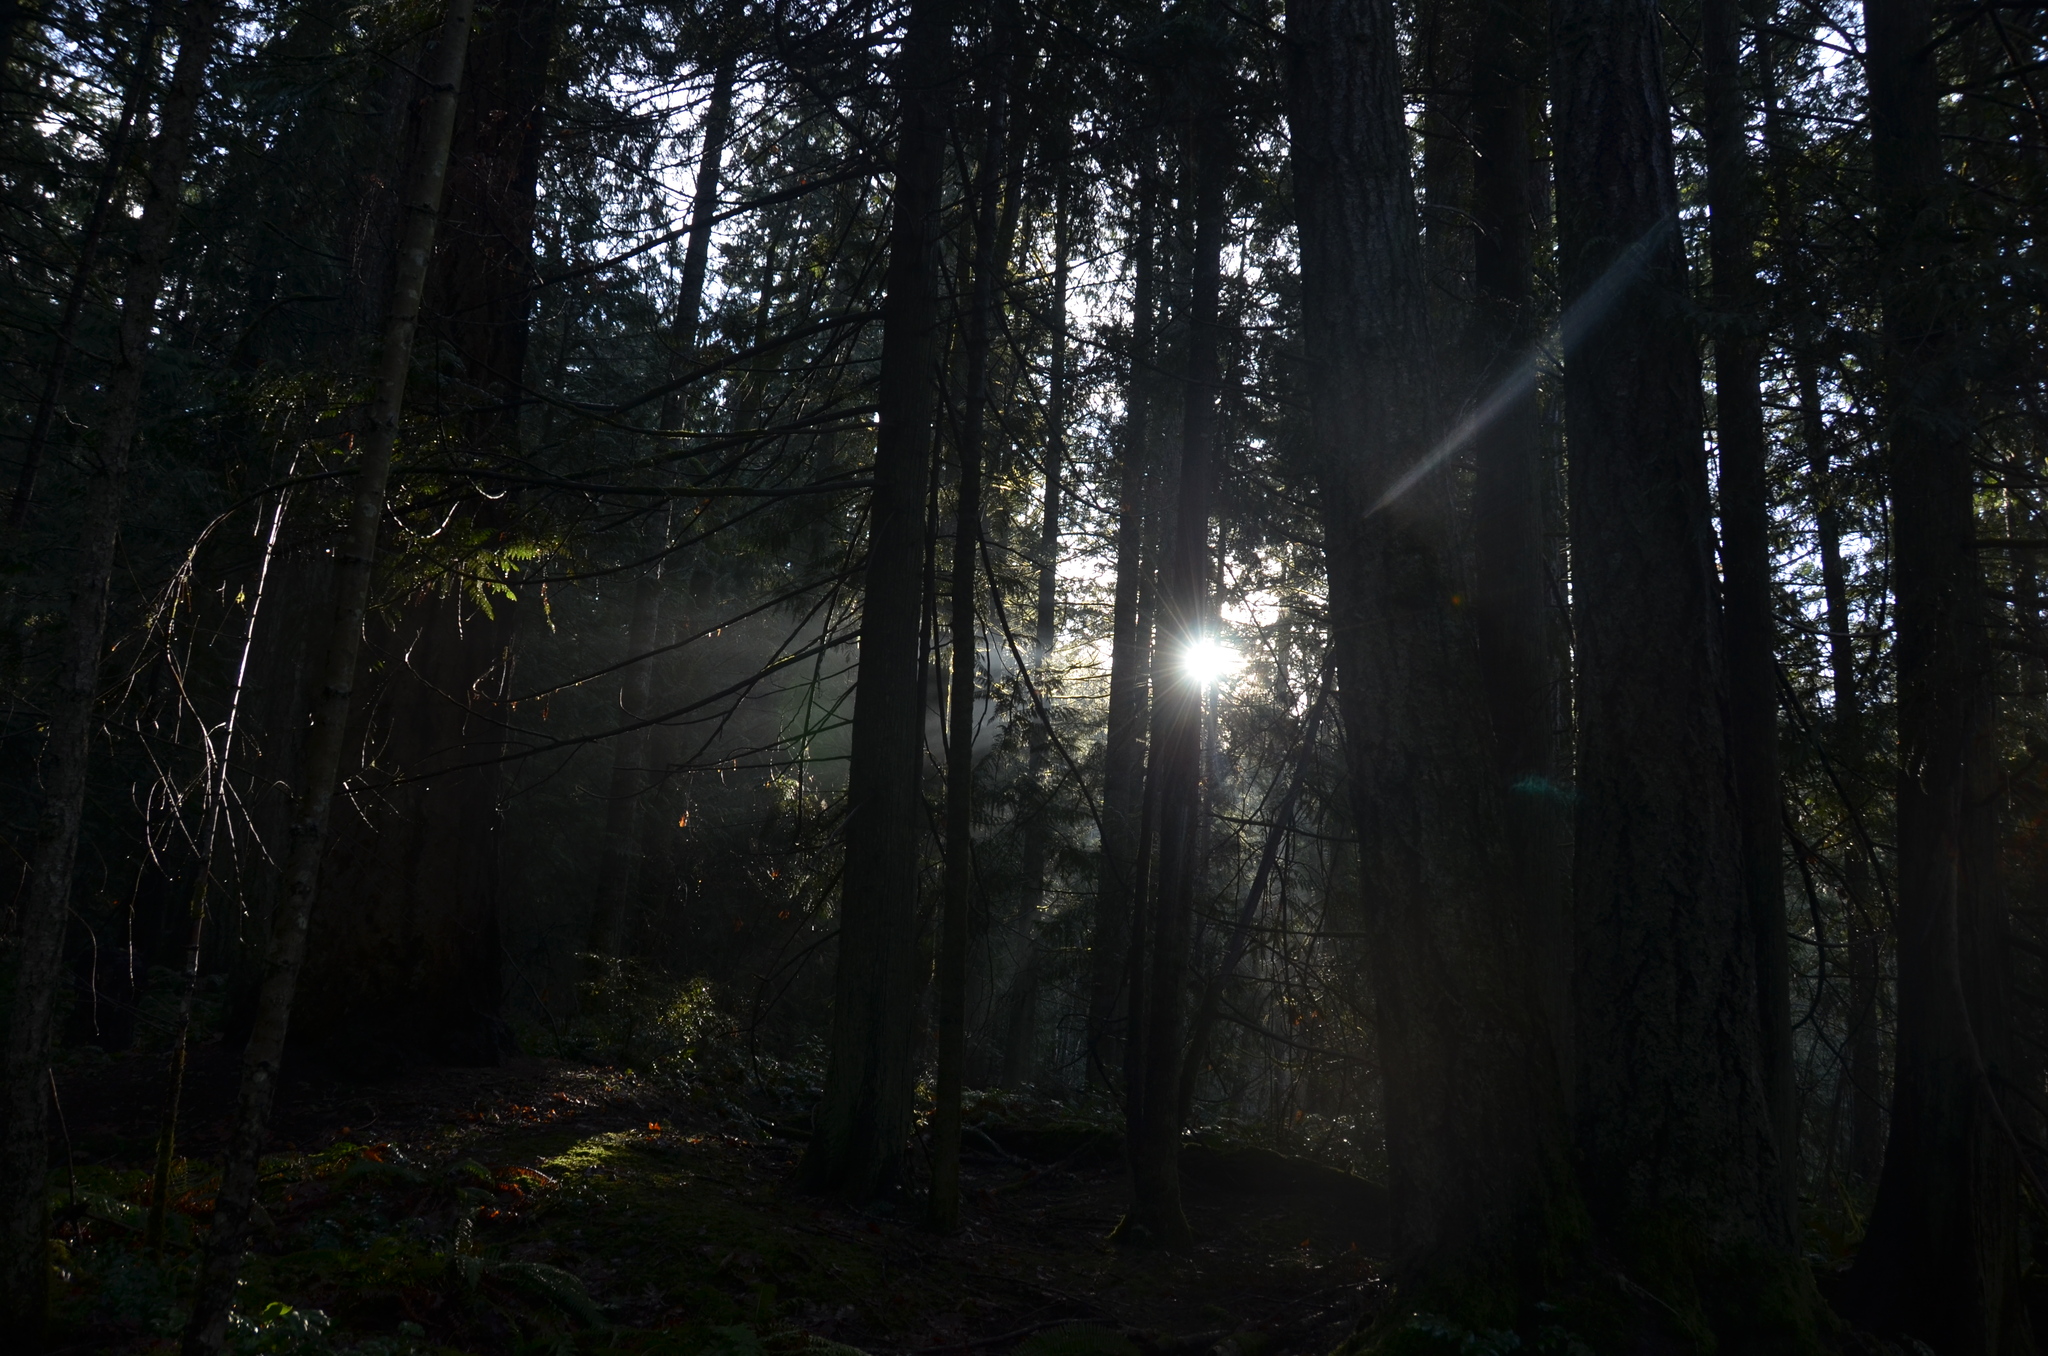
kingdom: Plantae
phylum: Tracheophyta
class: Pinopsida
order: Pinales
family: Pinaceae
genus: Pseudotsuga
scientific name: Pseudotsuga menziesii
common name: Douglas fir
